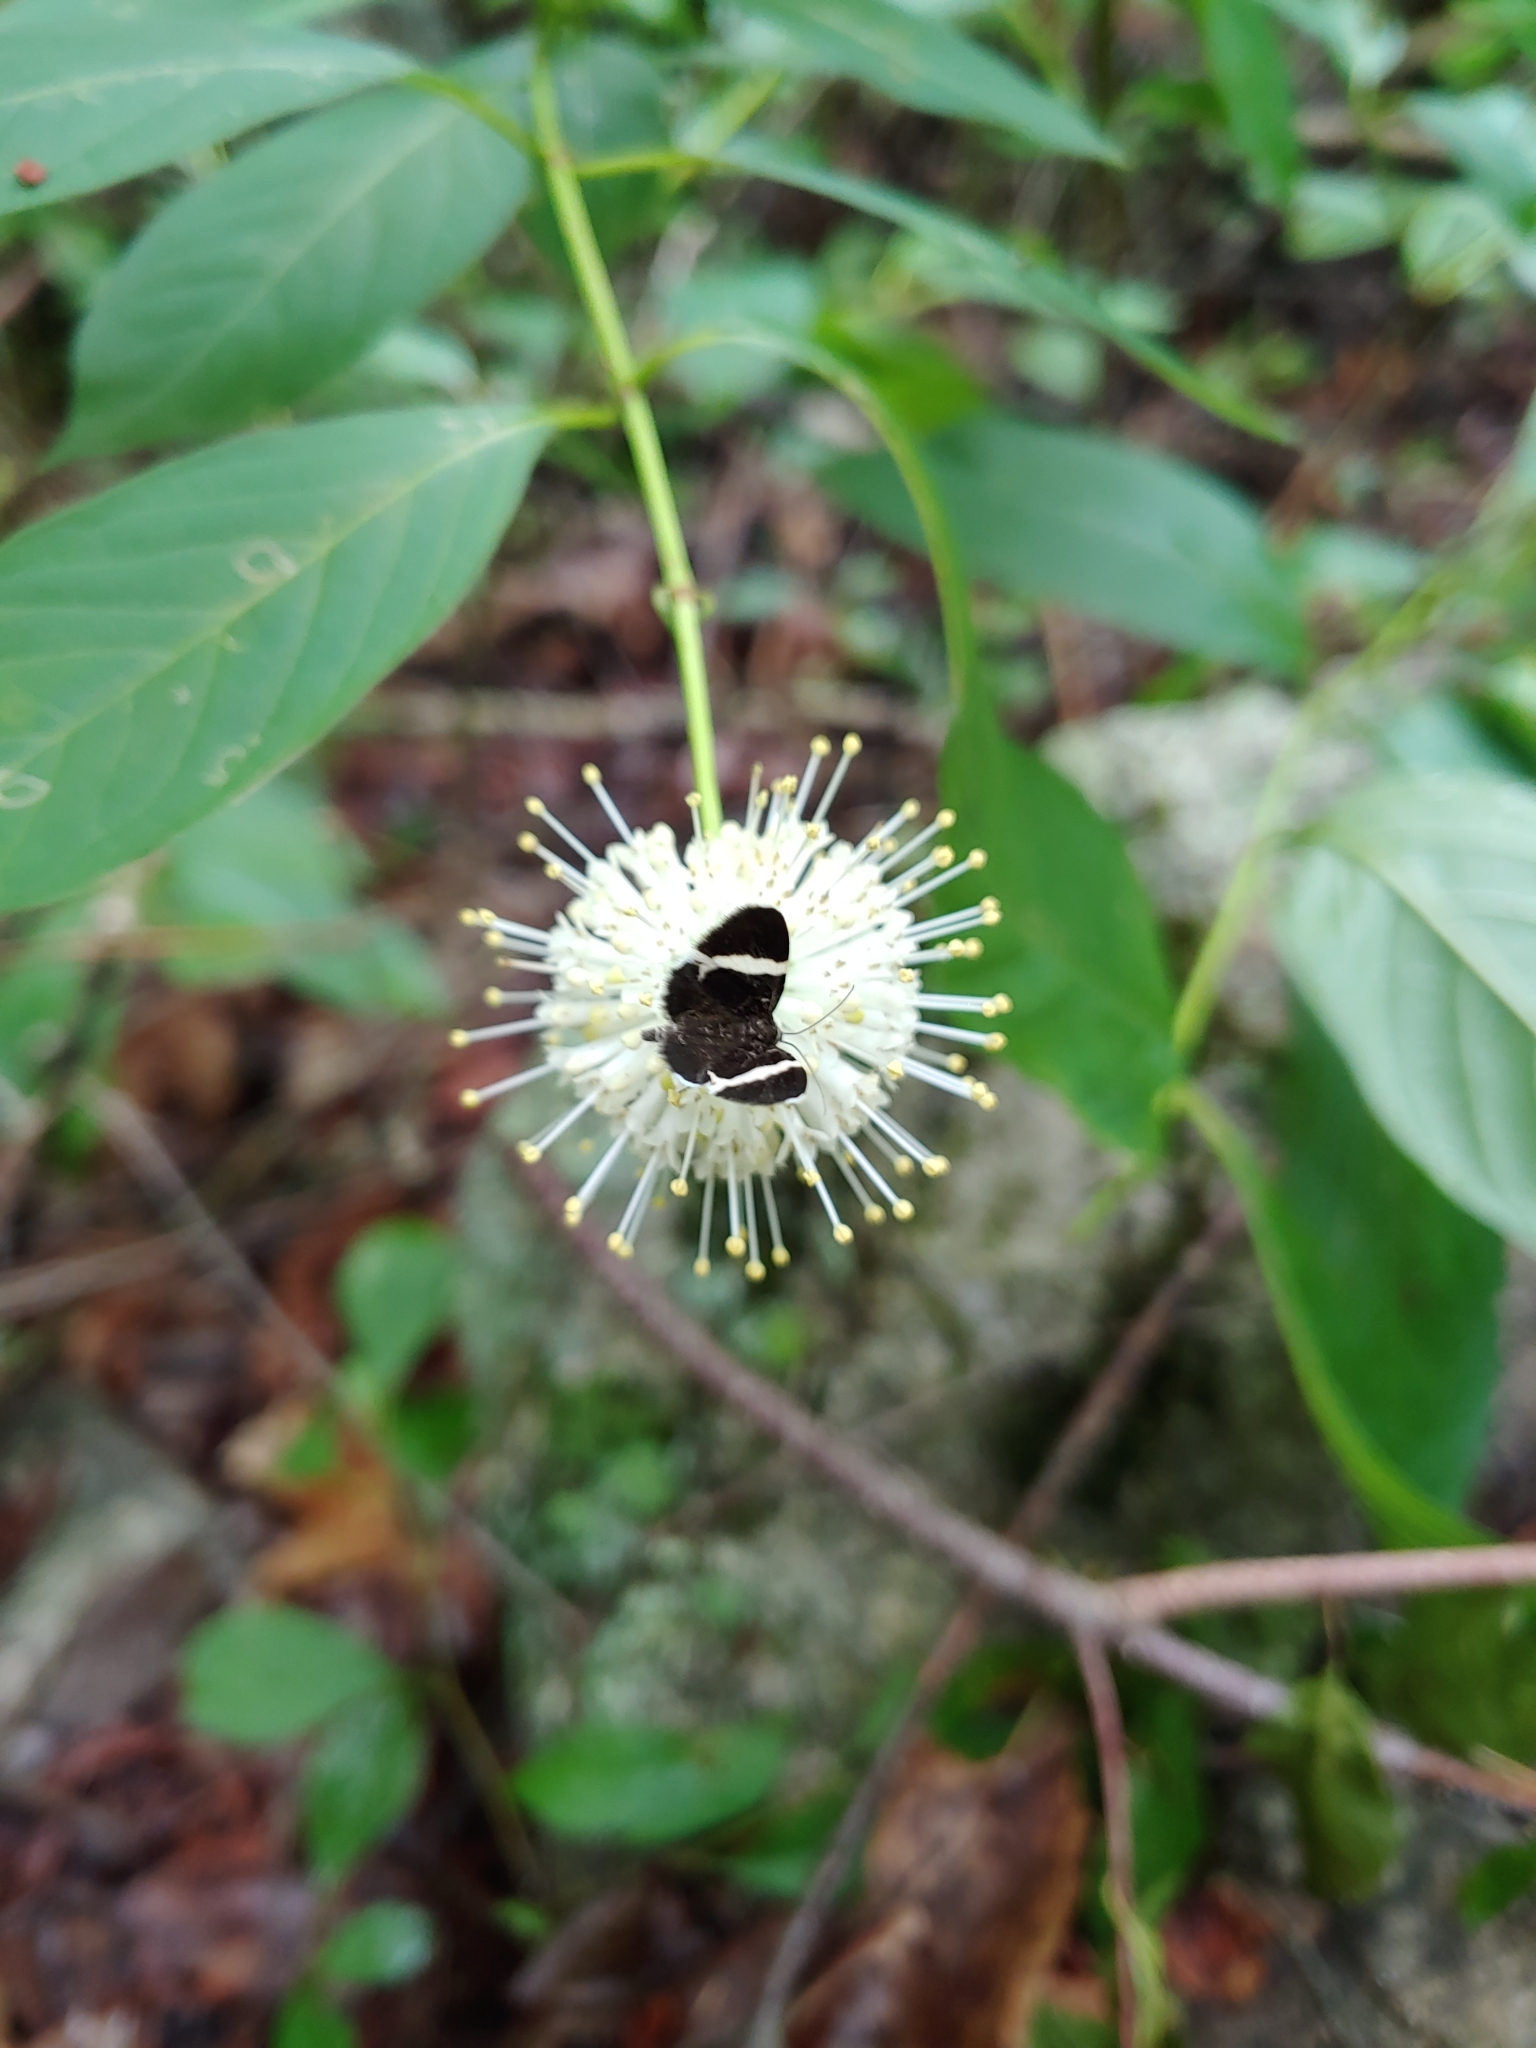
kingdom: Animalia
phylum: Arthropoda
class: Insecta
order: Lepidoptera
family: Geometridae
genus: Trichodezia
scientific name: Trichodezia albovittata
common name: White striped black
